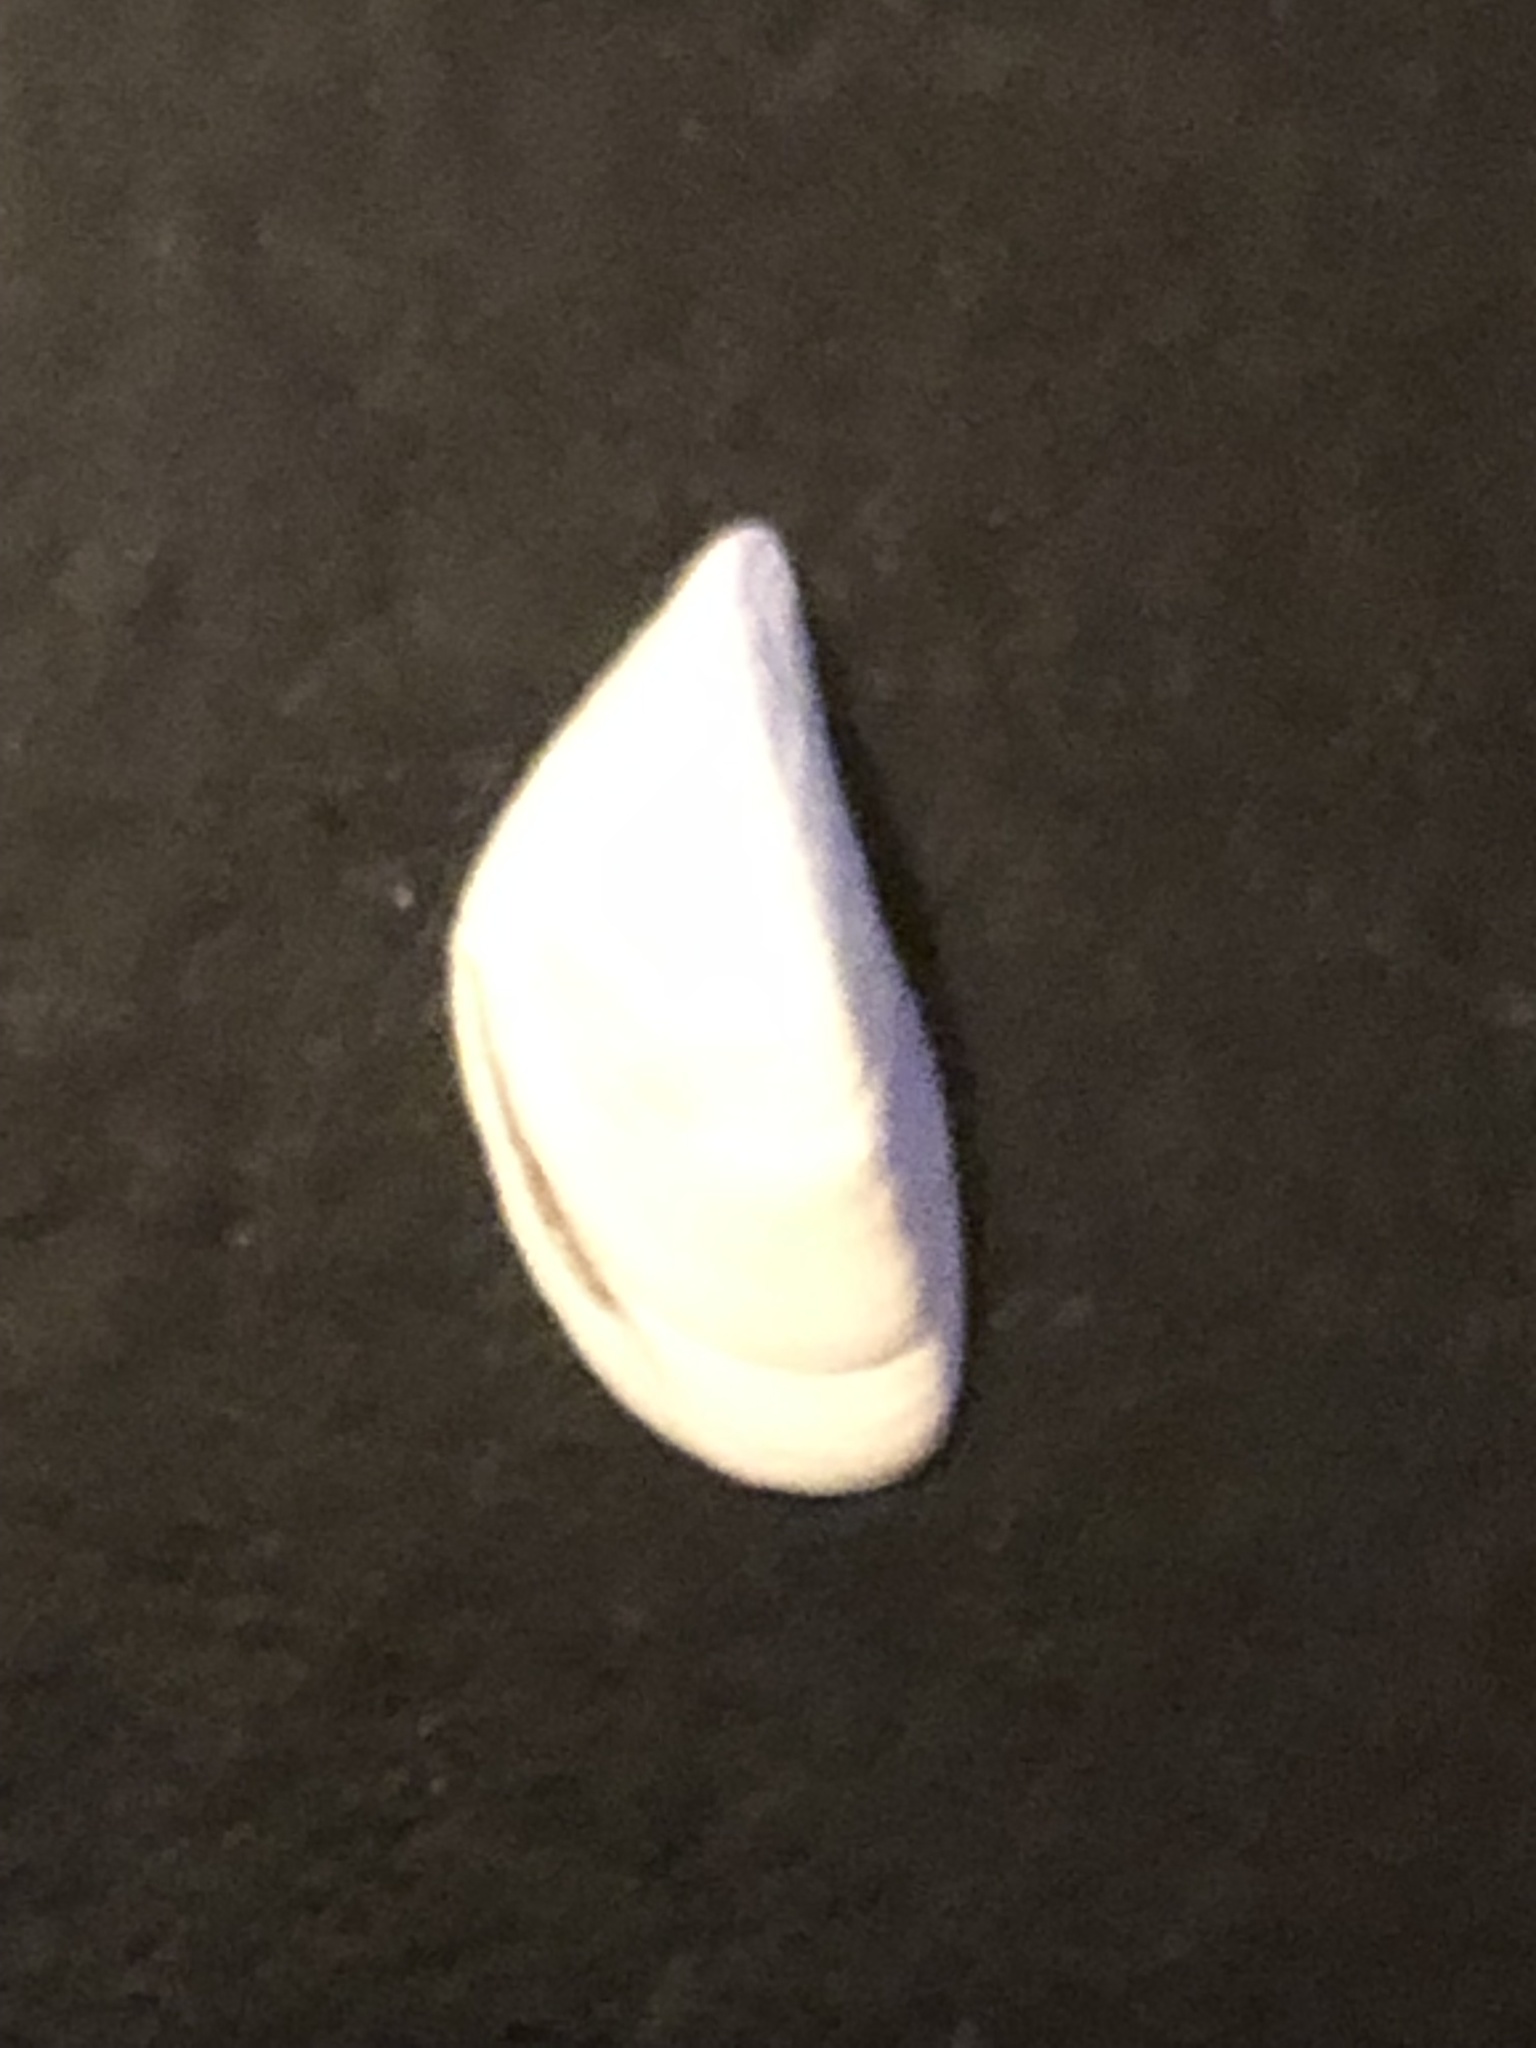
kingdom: Animalia
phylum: Mollusca
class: Bivalvia
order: Myida
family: Dreissenidae
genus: Dreissena
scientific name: Dreissena polymorpha
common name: Zebra mussel
